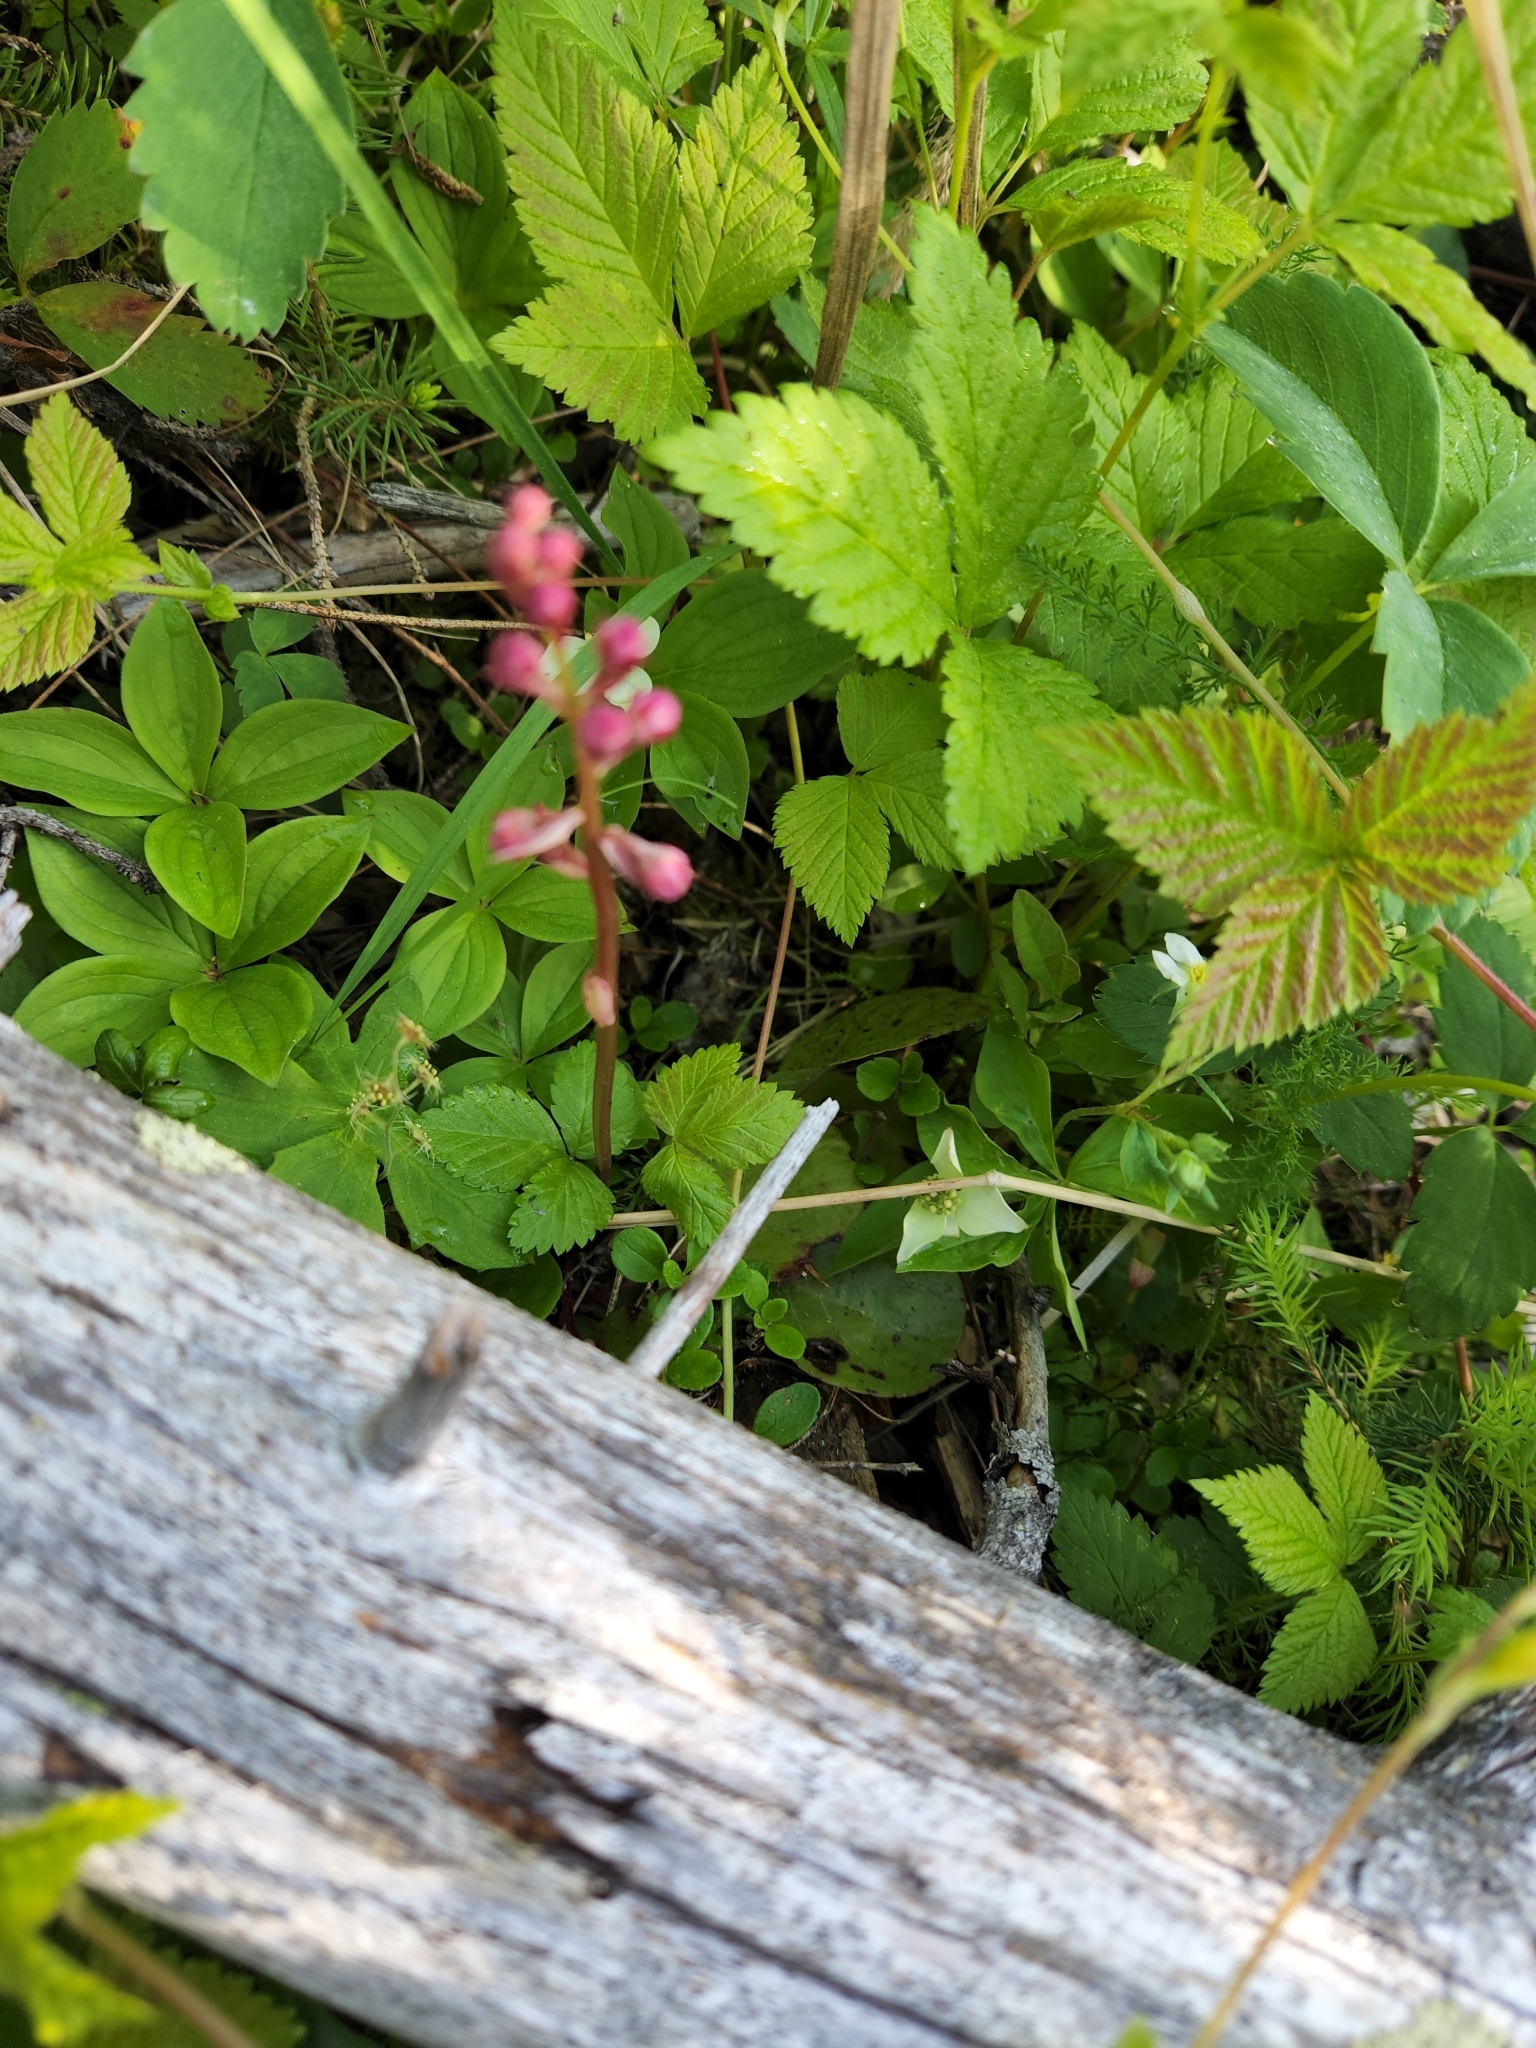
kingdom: Plantae
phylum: Tracheophyta
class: Magnoliopsida
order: Ericales
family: Ericaceae
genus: Pyrola
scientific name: Pyrola asarifolia
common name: Bog wintergreen
